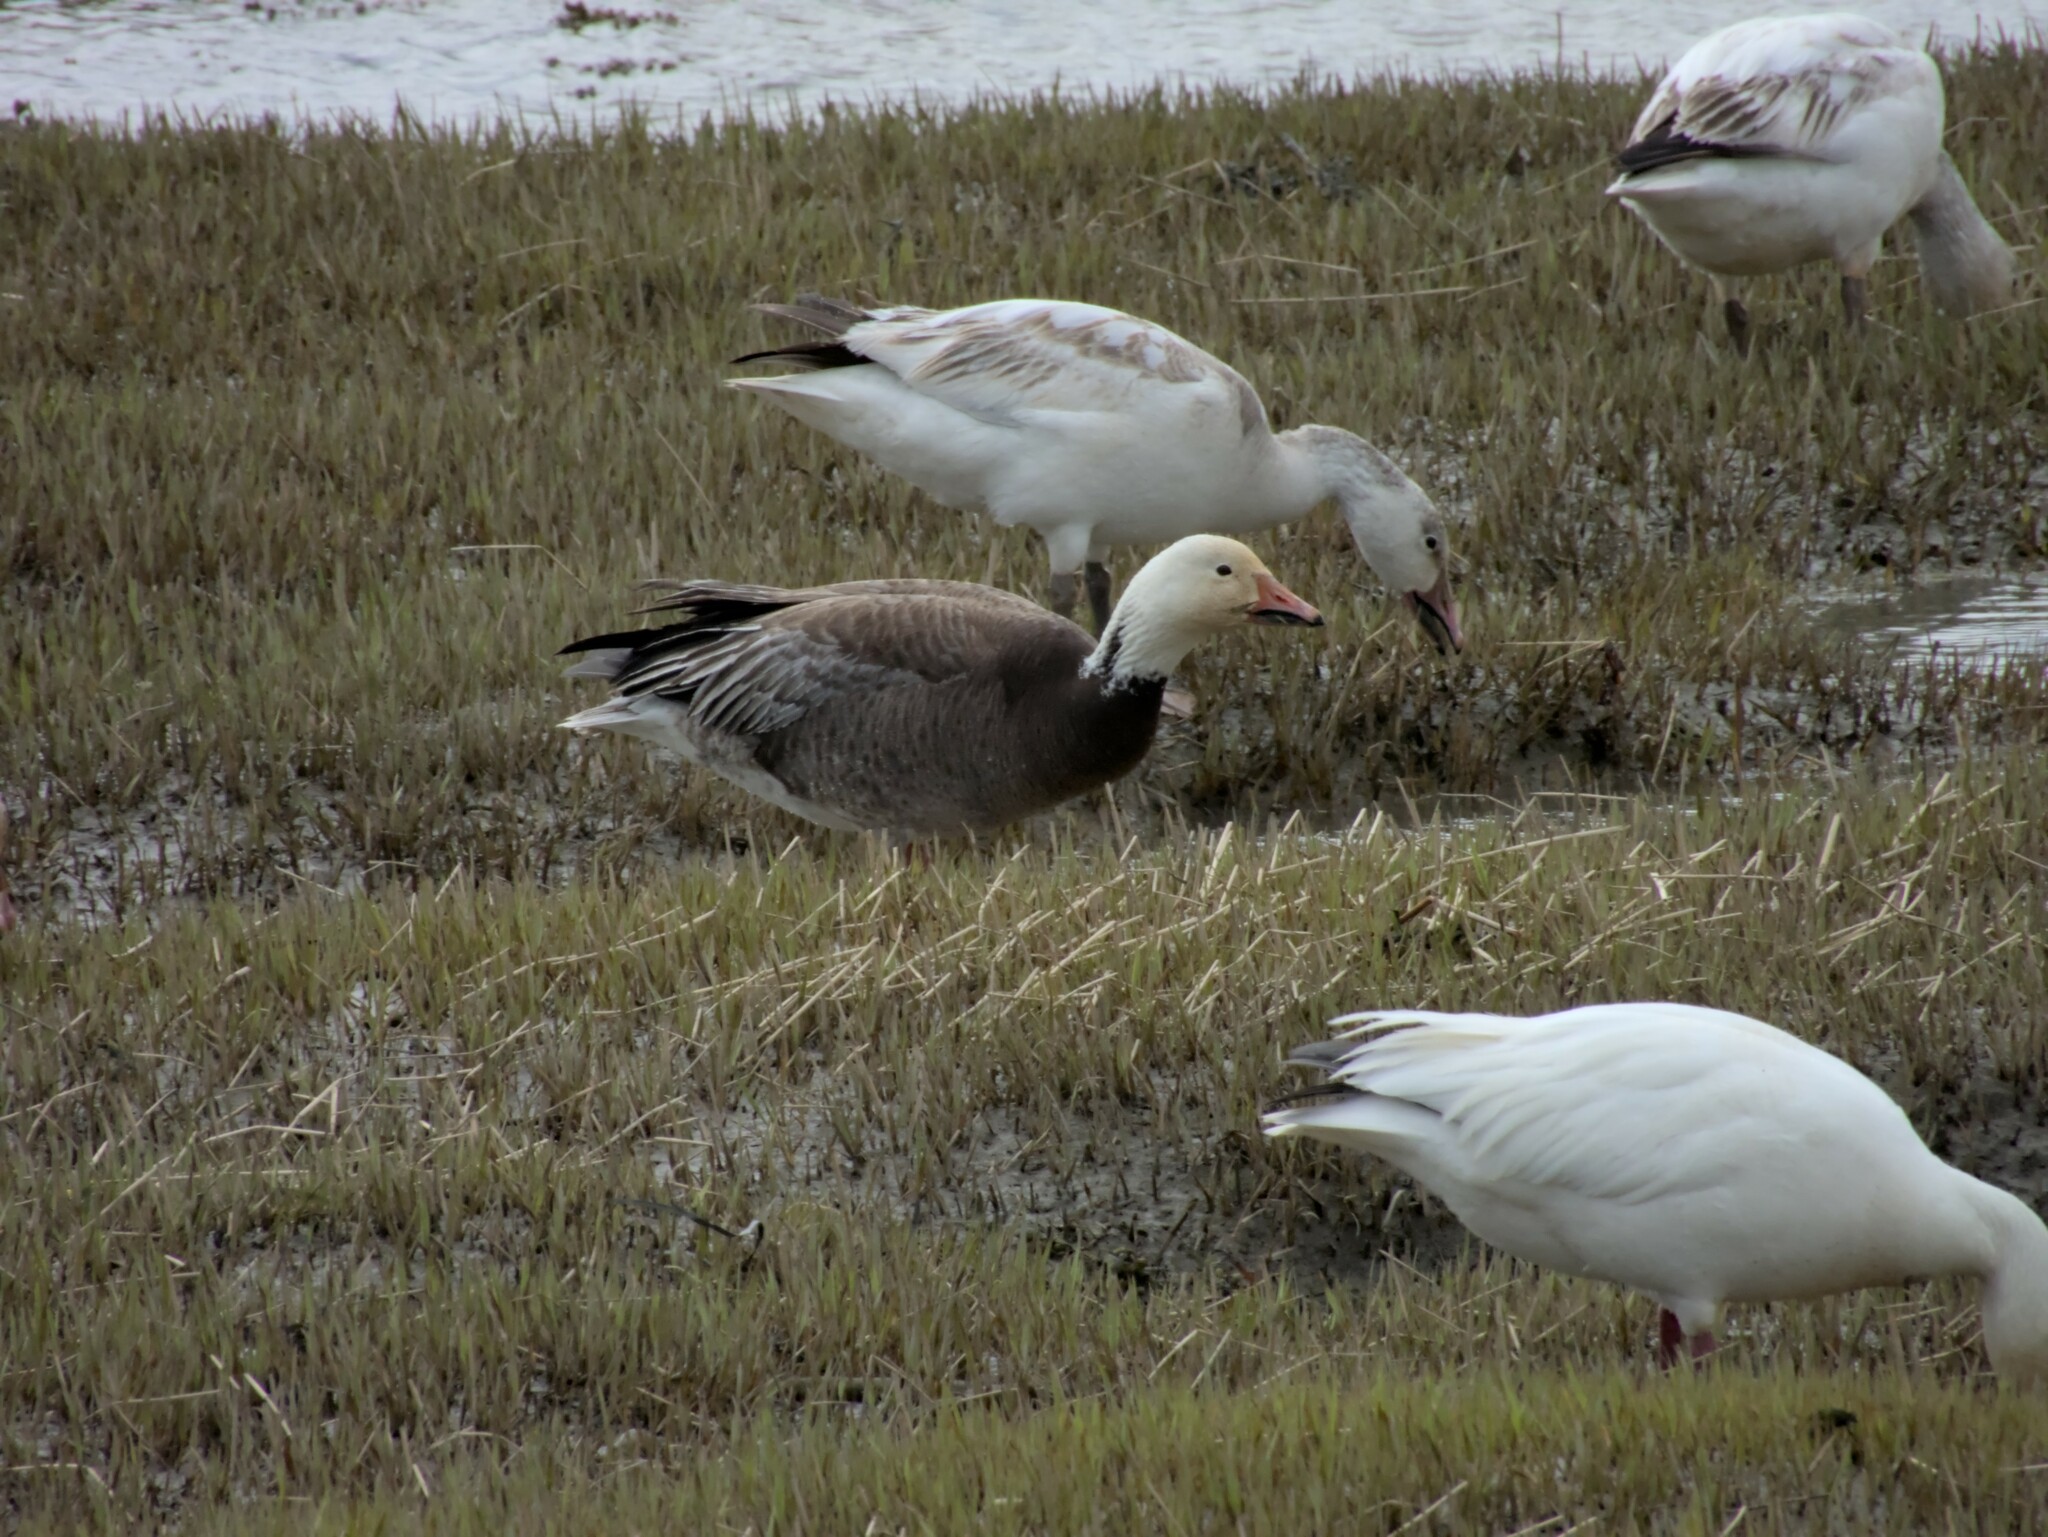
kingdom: Animalia
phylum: Chordata
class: Aves
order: Anseriformes
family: Anatidae
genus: Anser
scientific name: Anser caerulescens
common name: Snow goose
